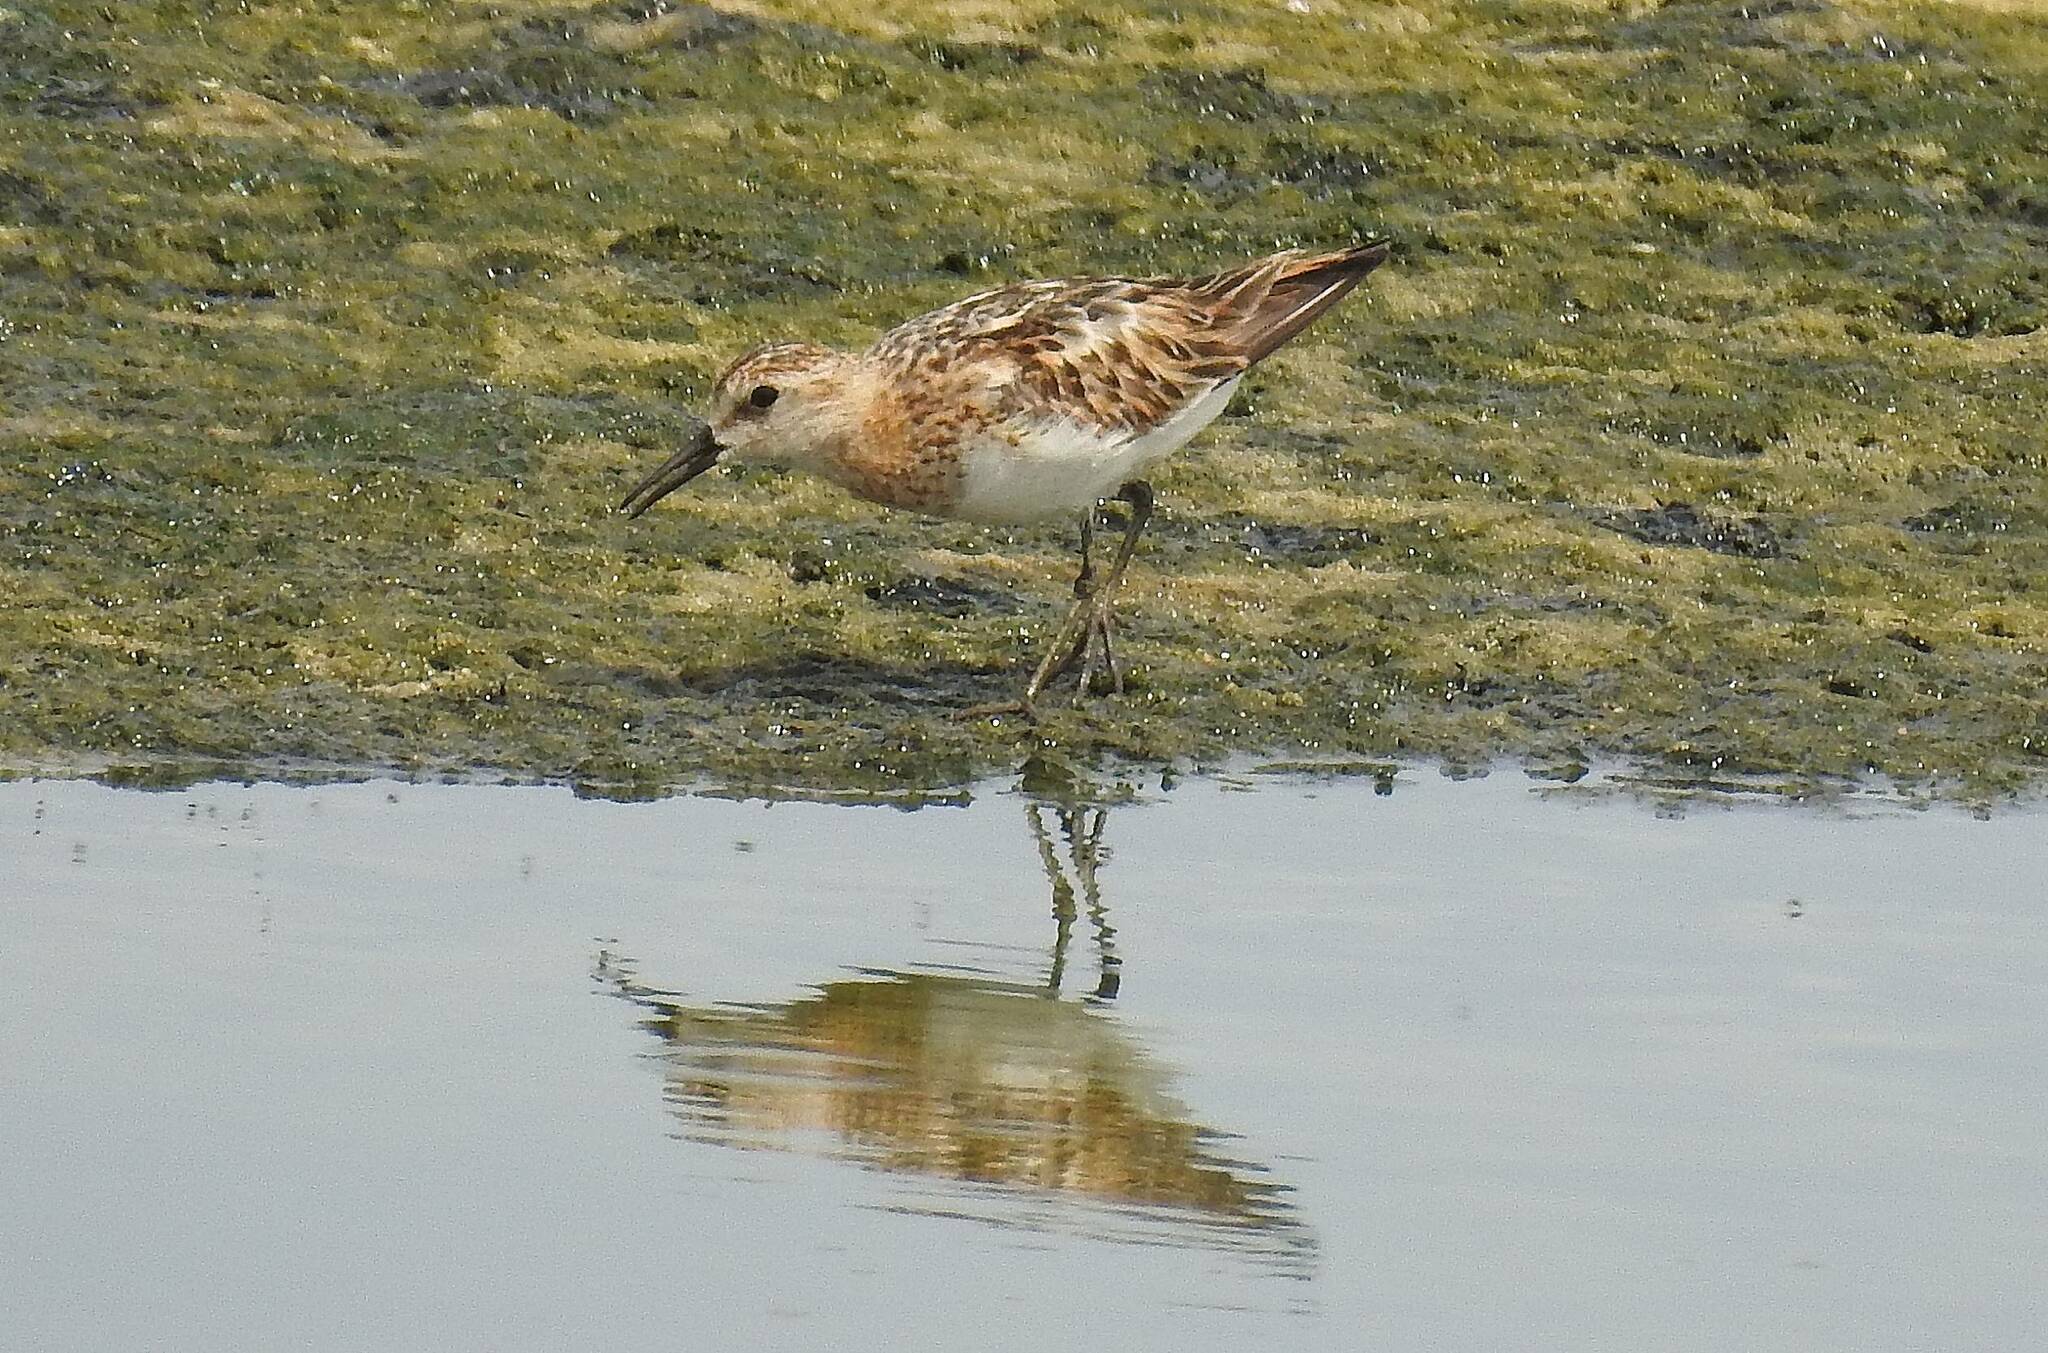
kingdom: Animalia
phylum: Chordata
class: Aves
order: Charadriiformes
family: Scolopacidae
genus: Calidris
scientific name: Calidris minuta
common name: Little stint
